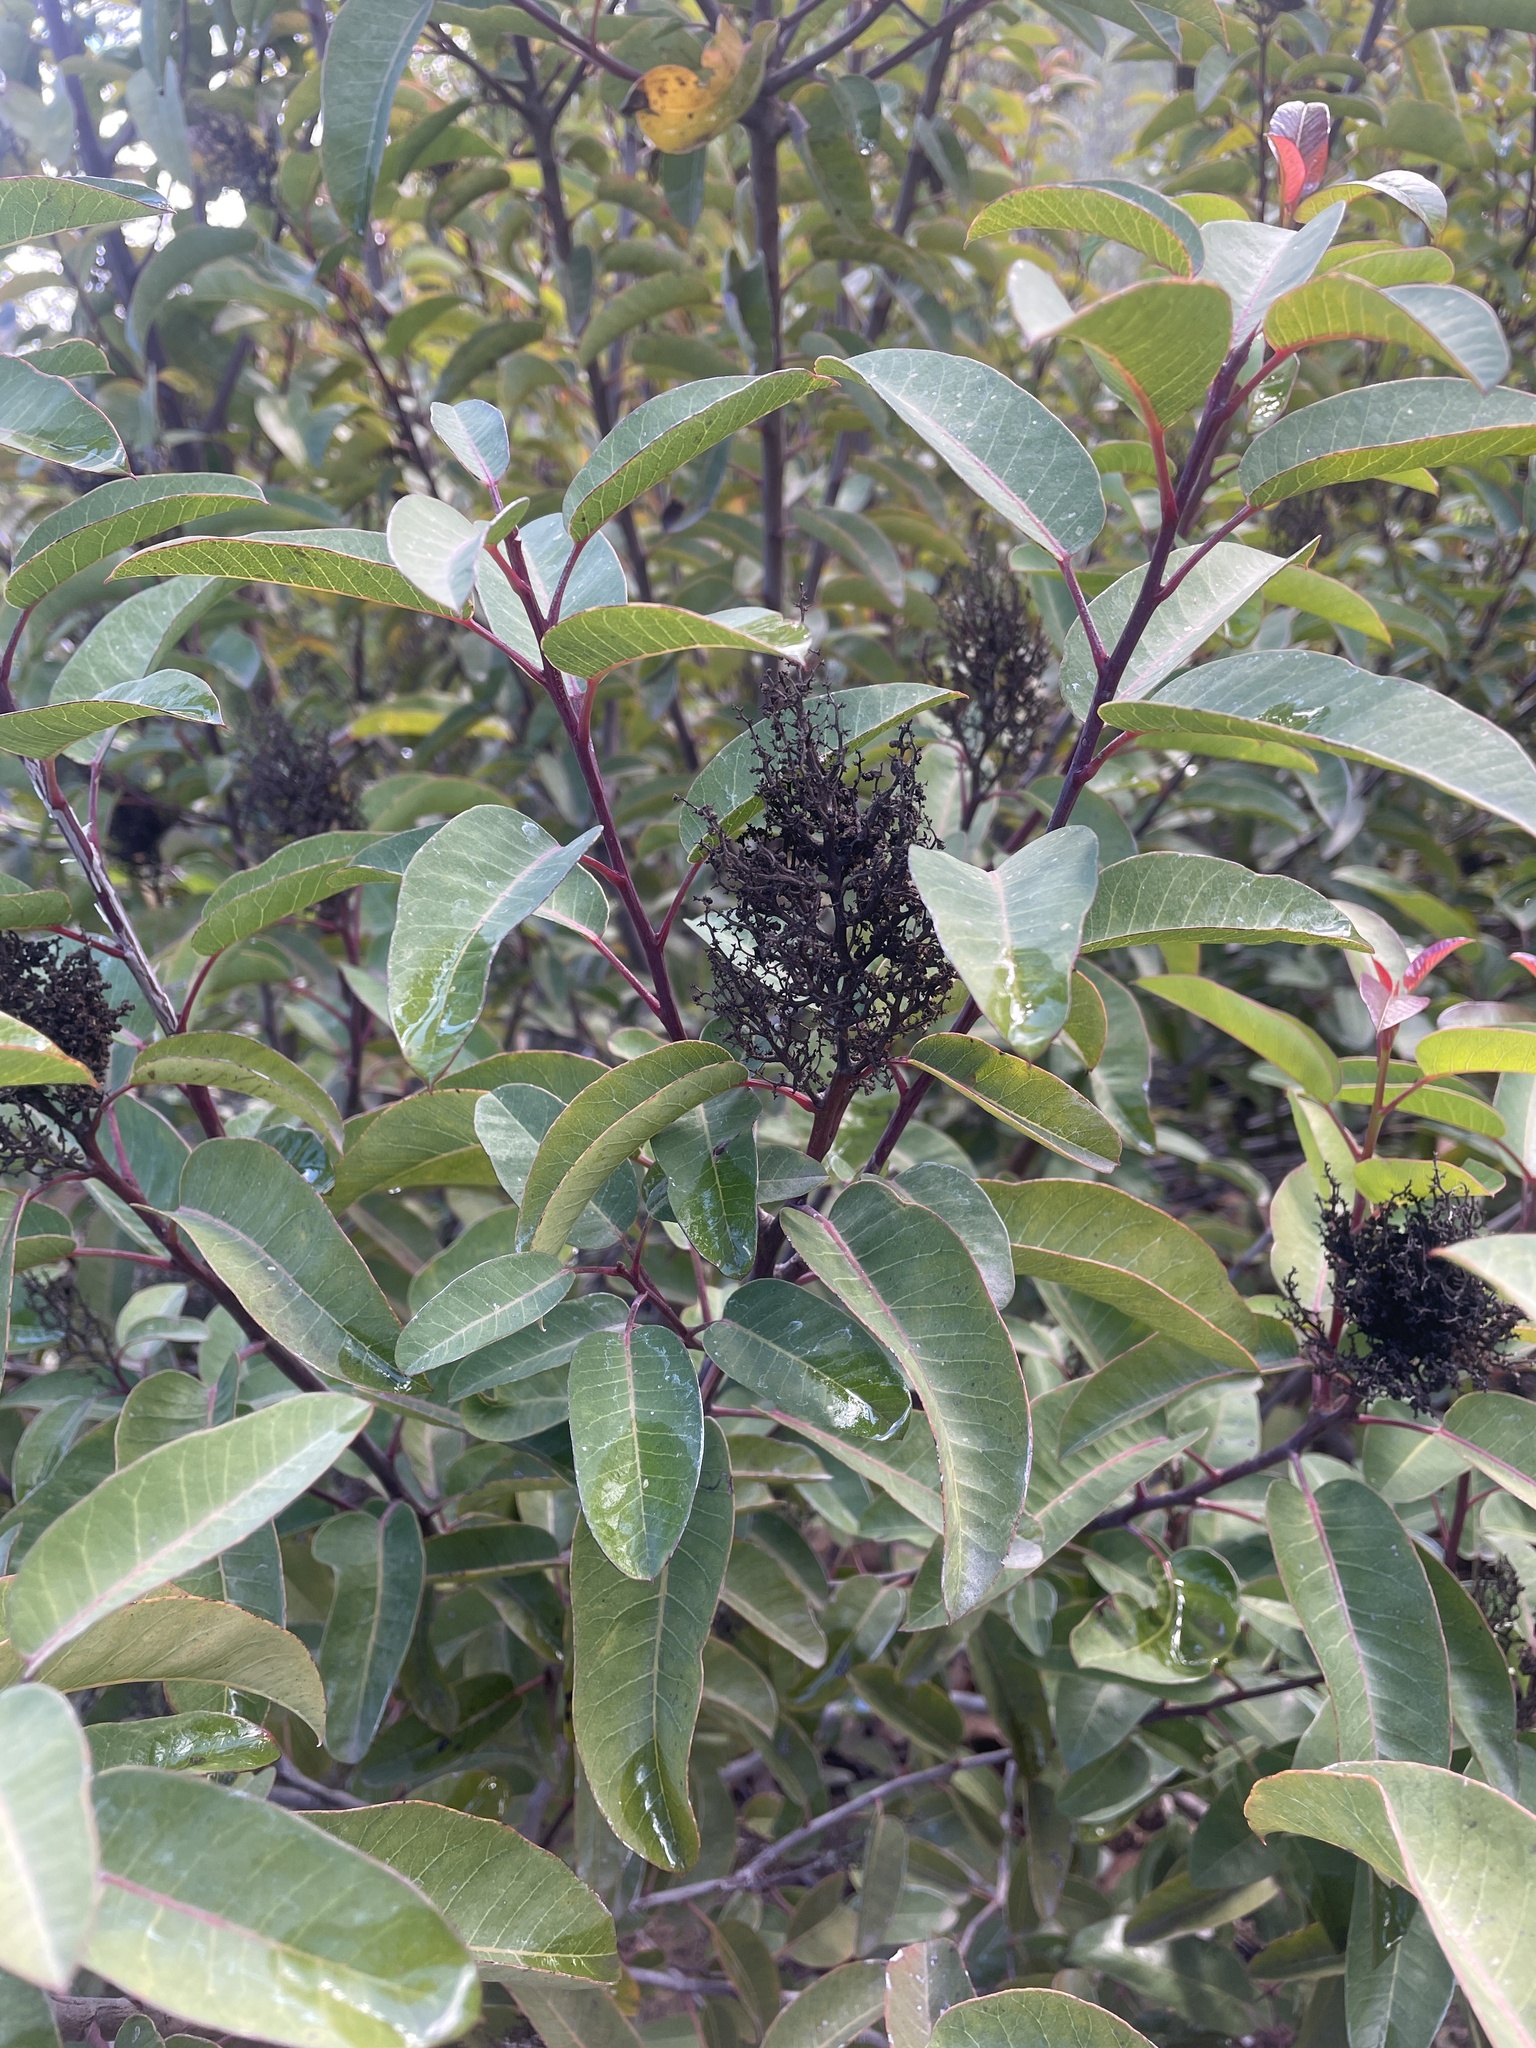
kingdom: Plantae
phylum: Tracheophyta
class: Magnoliopsida
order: Sapindales
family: Anacardiaceae
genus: Malosma
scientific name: Malosma laurina
